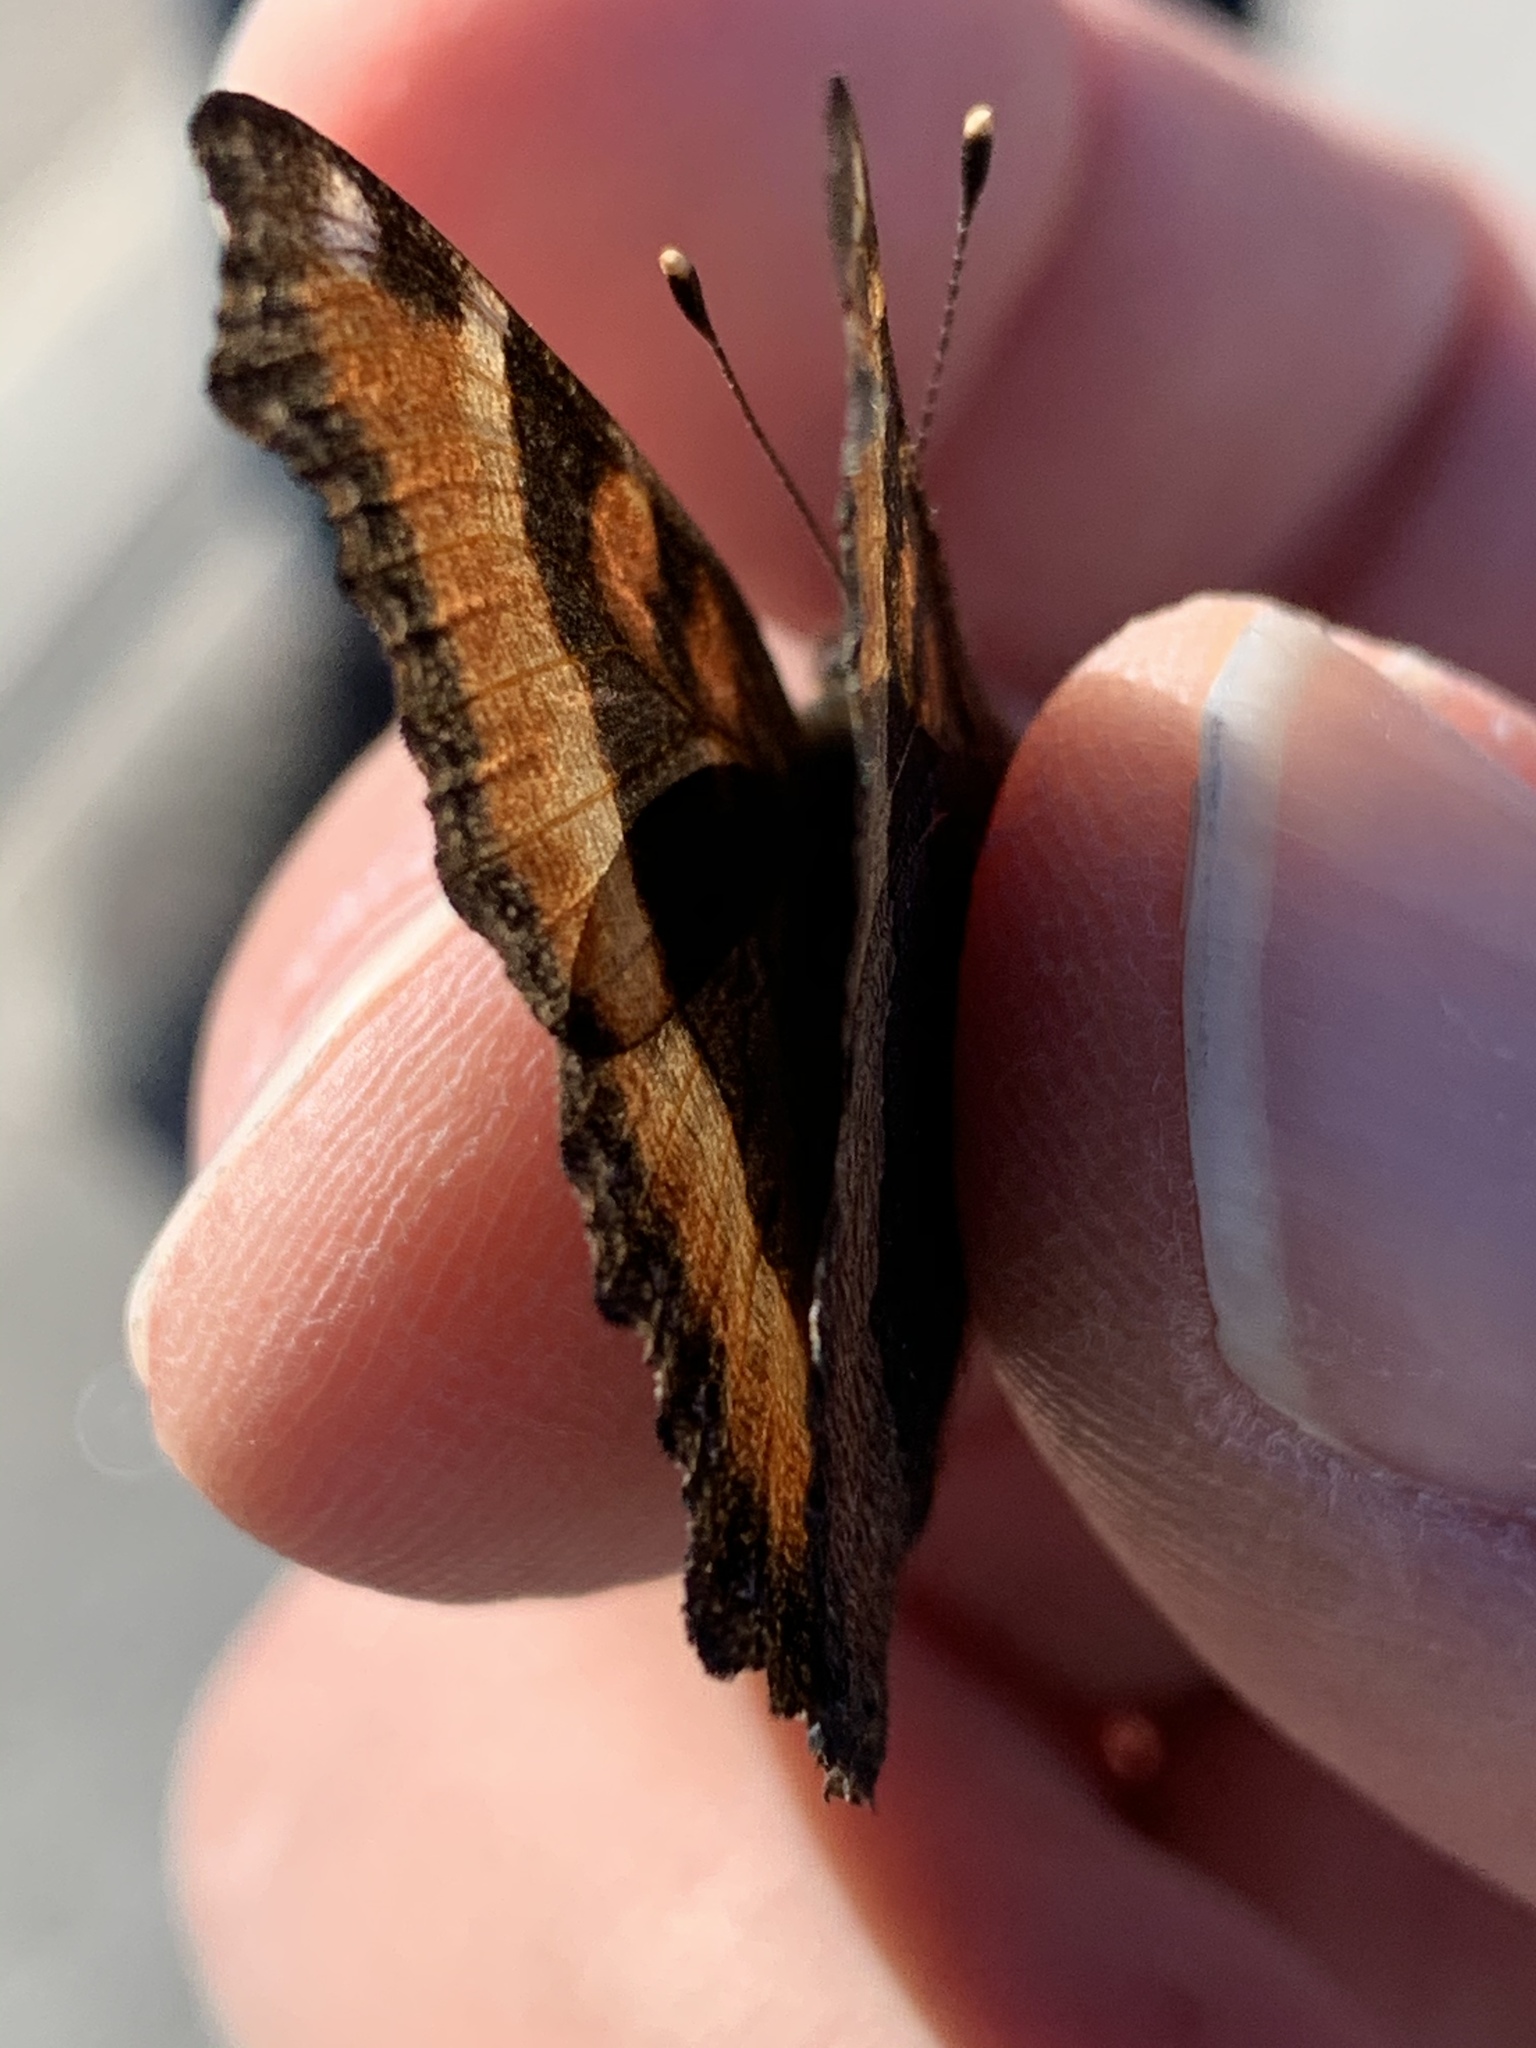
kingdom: Animalia
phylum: Arthropoda
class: Insecta
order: Lepidoptera
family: Nymphalidae
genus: Aglais
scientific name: Aglais milberti
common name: Milbert's tortoiseshell
